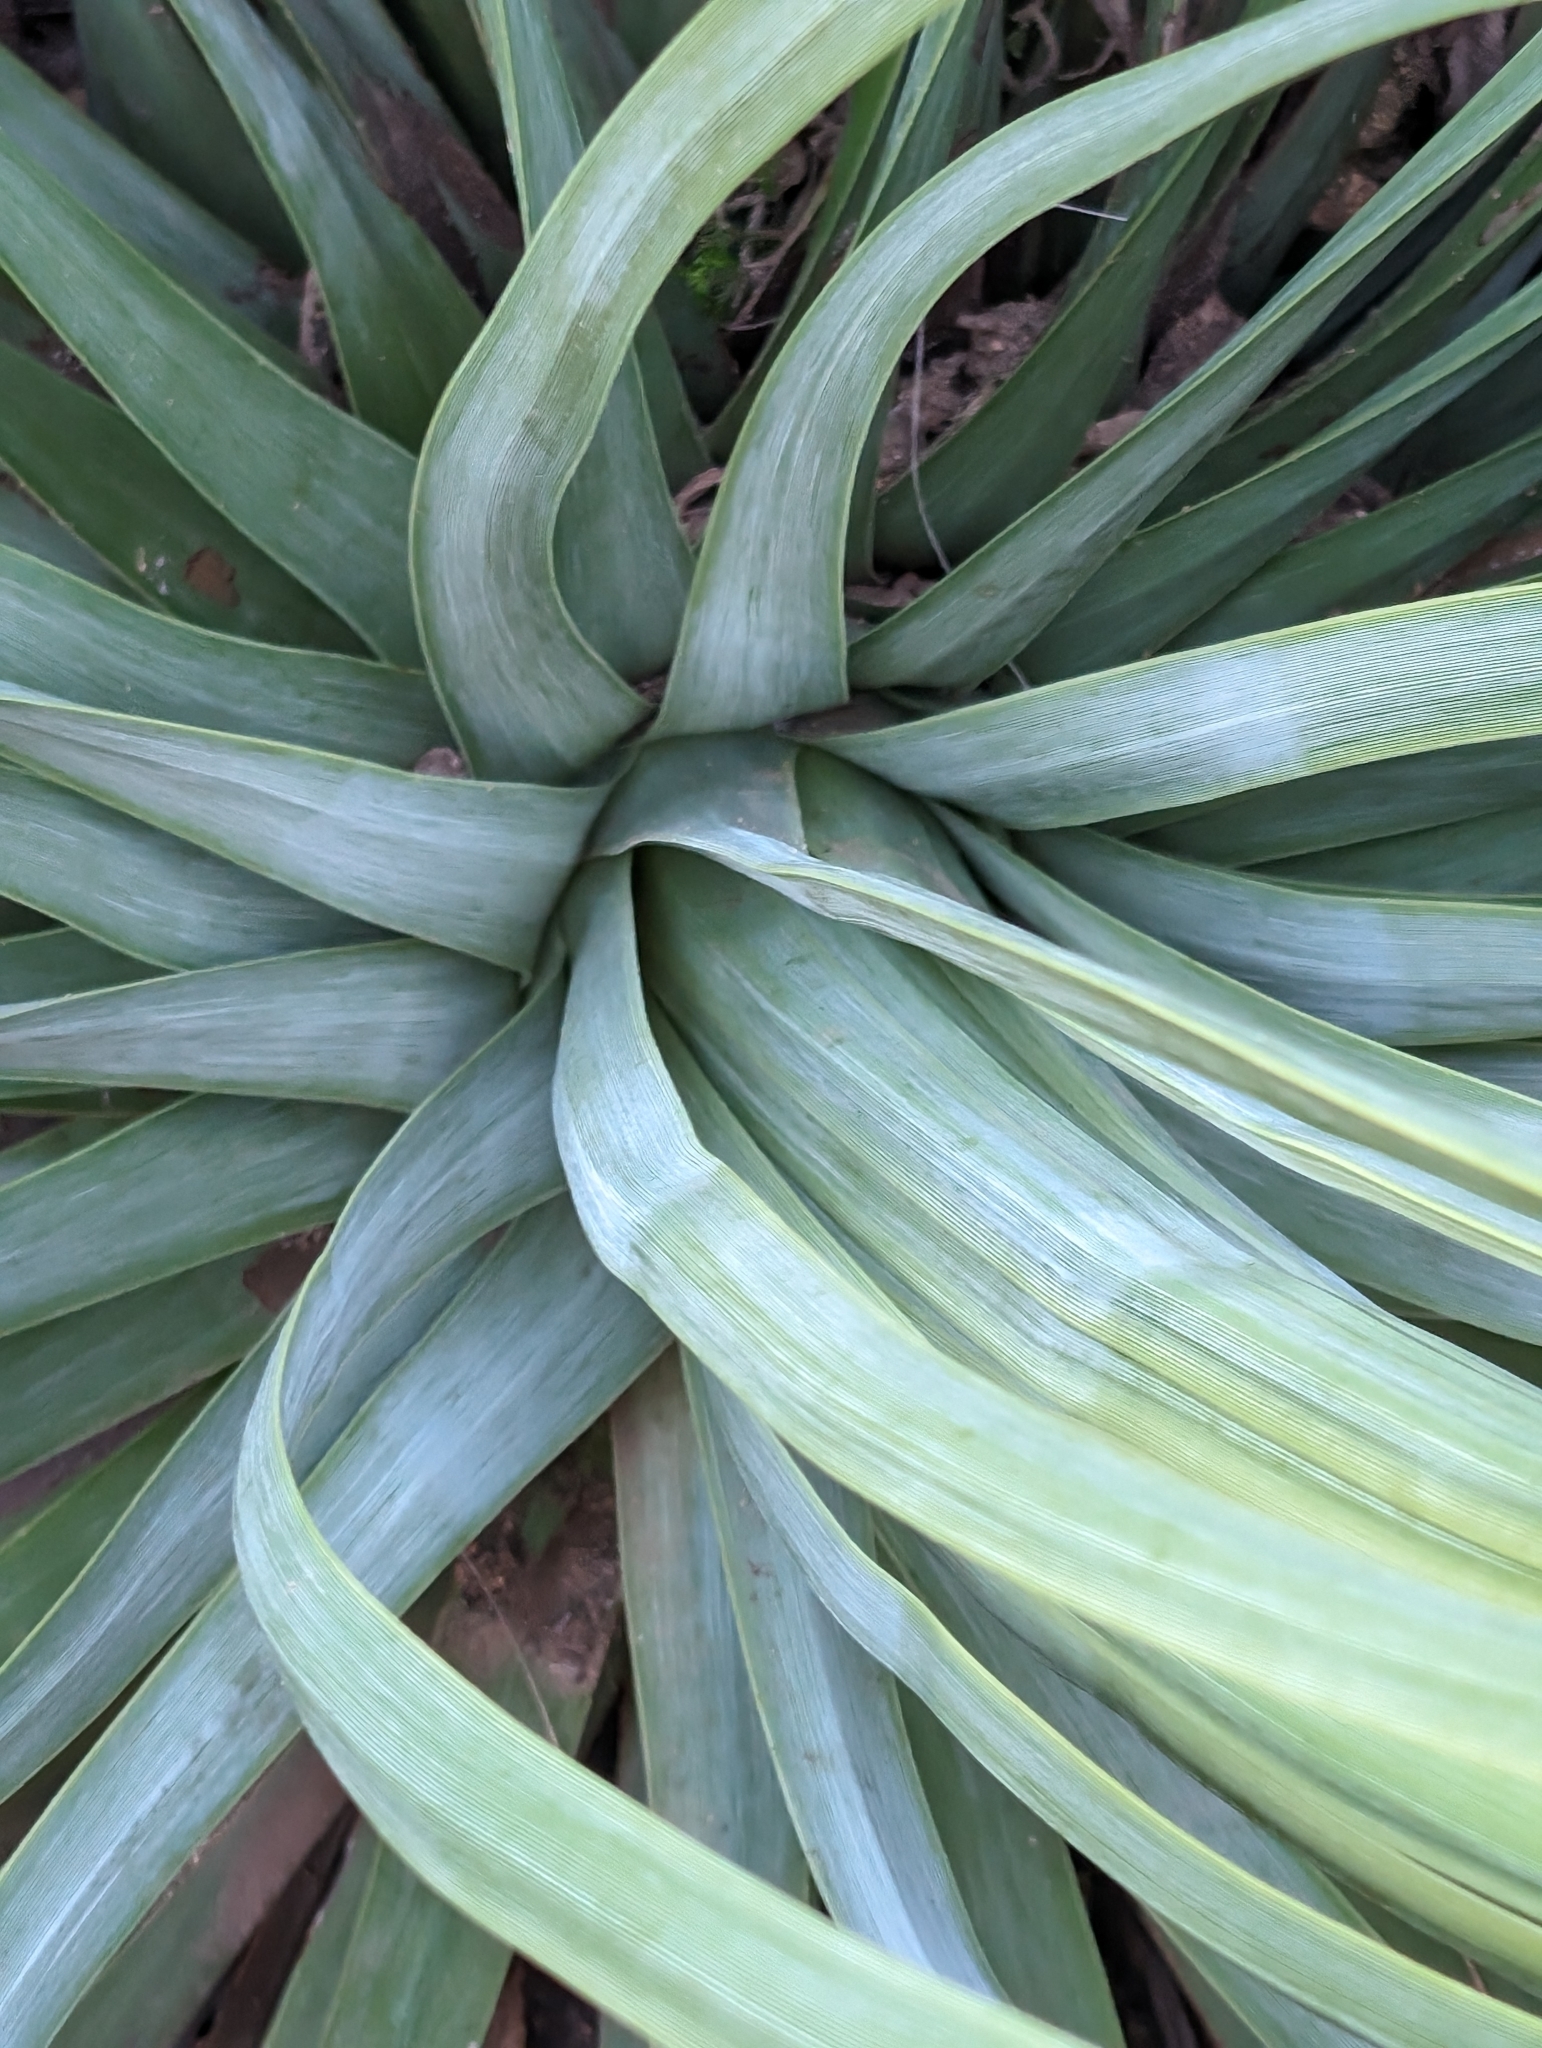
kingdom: Plantae
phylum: Tracheophyta
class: Liliopsida
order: Asparagales
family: Asparagaceae
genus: Hesperoyucca
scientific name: Hesperoyucca whipplei
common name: Our lord's-candle
